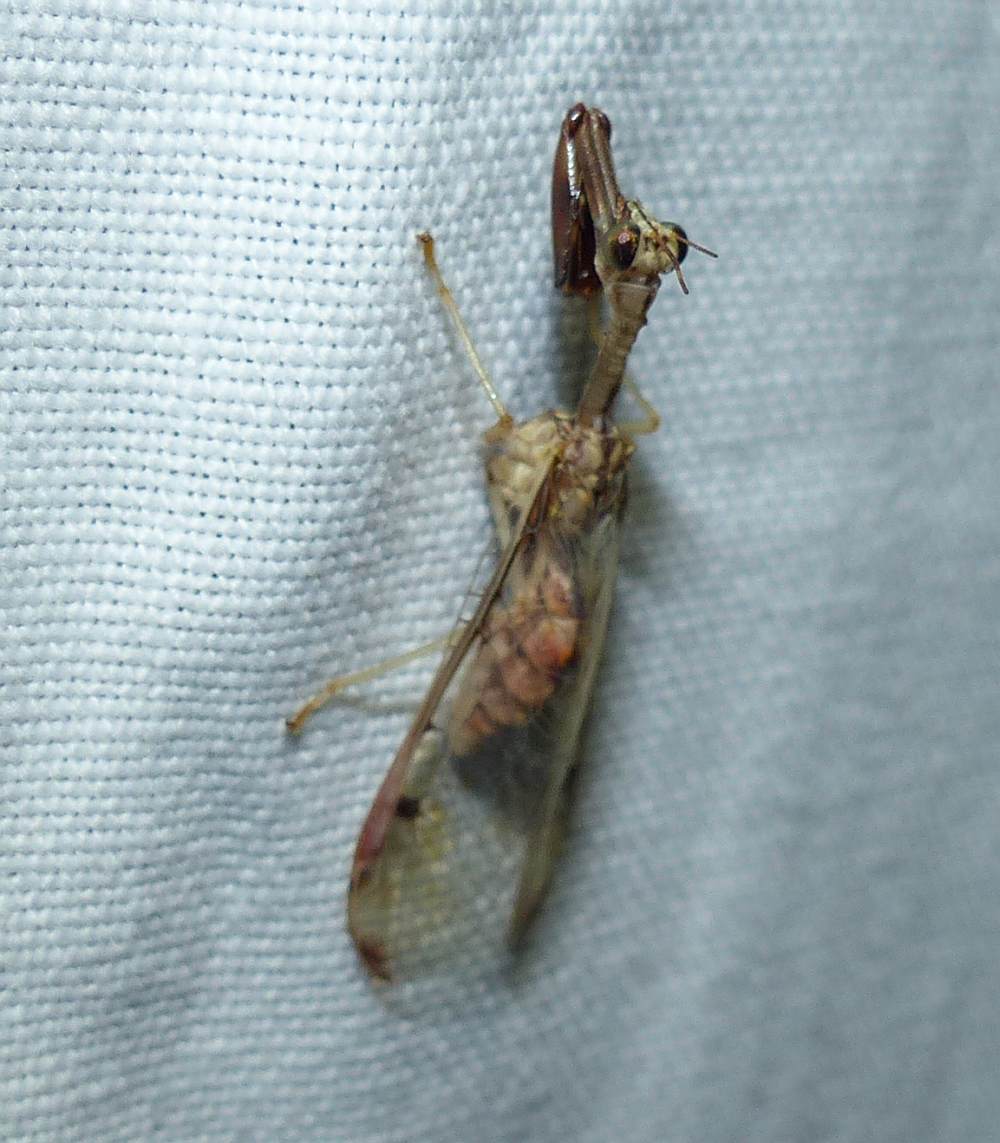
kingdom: Animalia
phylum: Arthropoda
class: Insecta
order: Neuroptera
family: Mantispidae
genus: Dicromantispa
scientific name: Dicromantispa interrupta
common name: Four-spotted mantidfly
